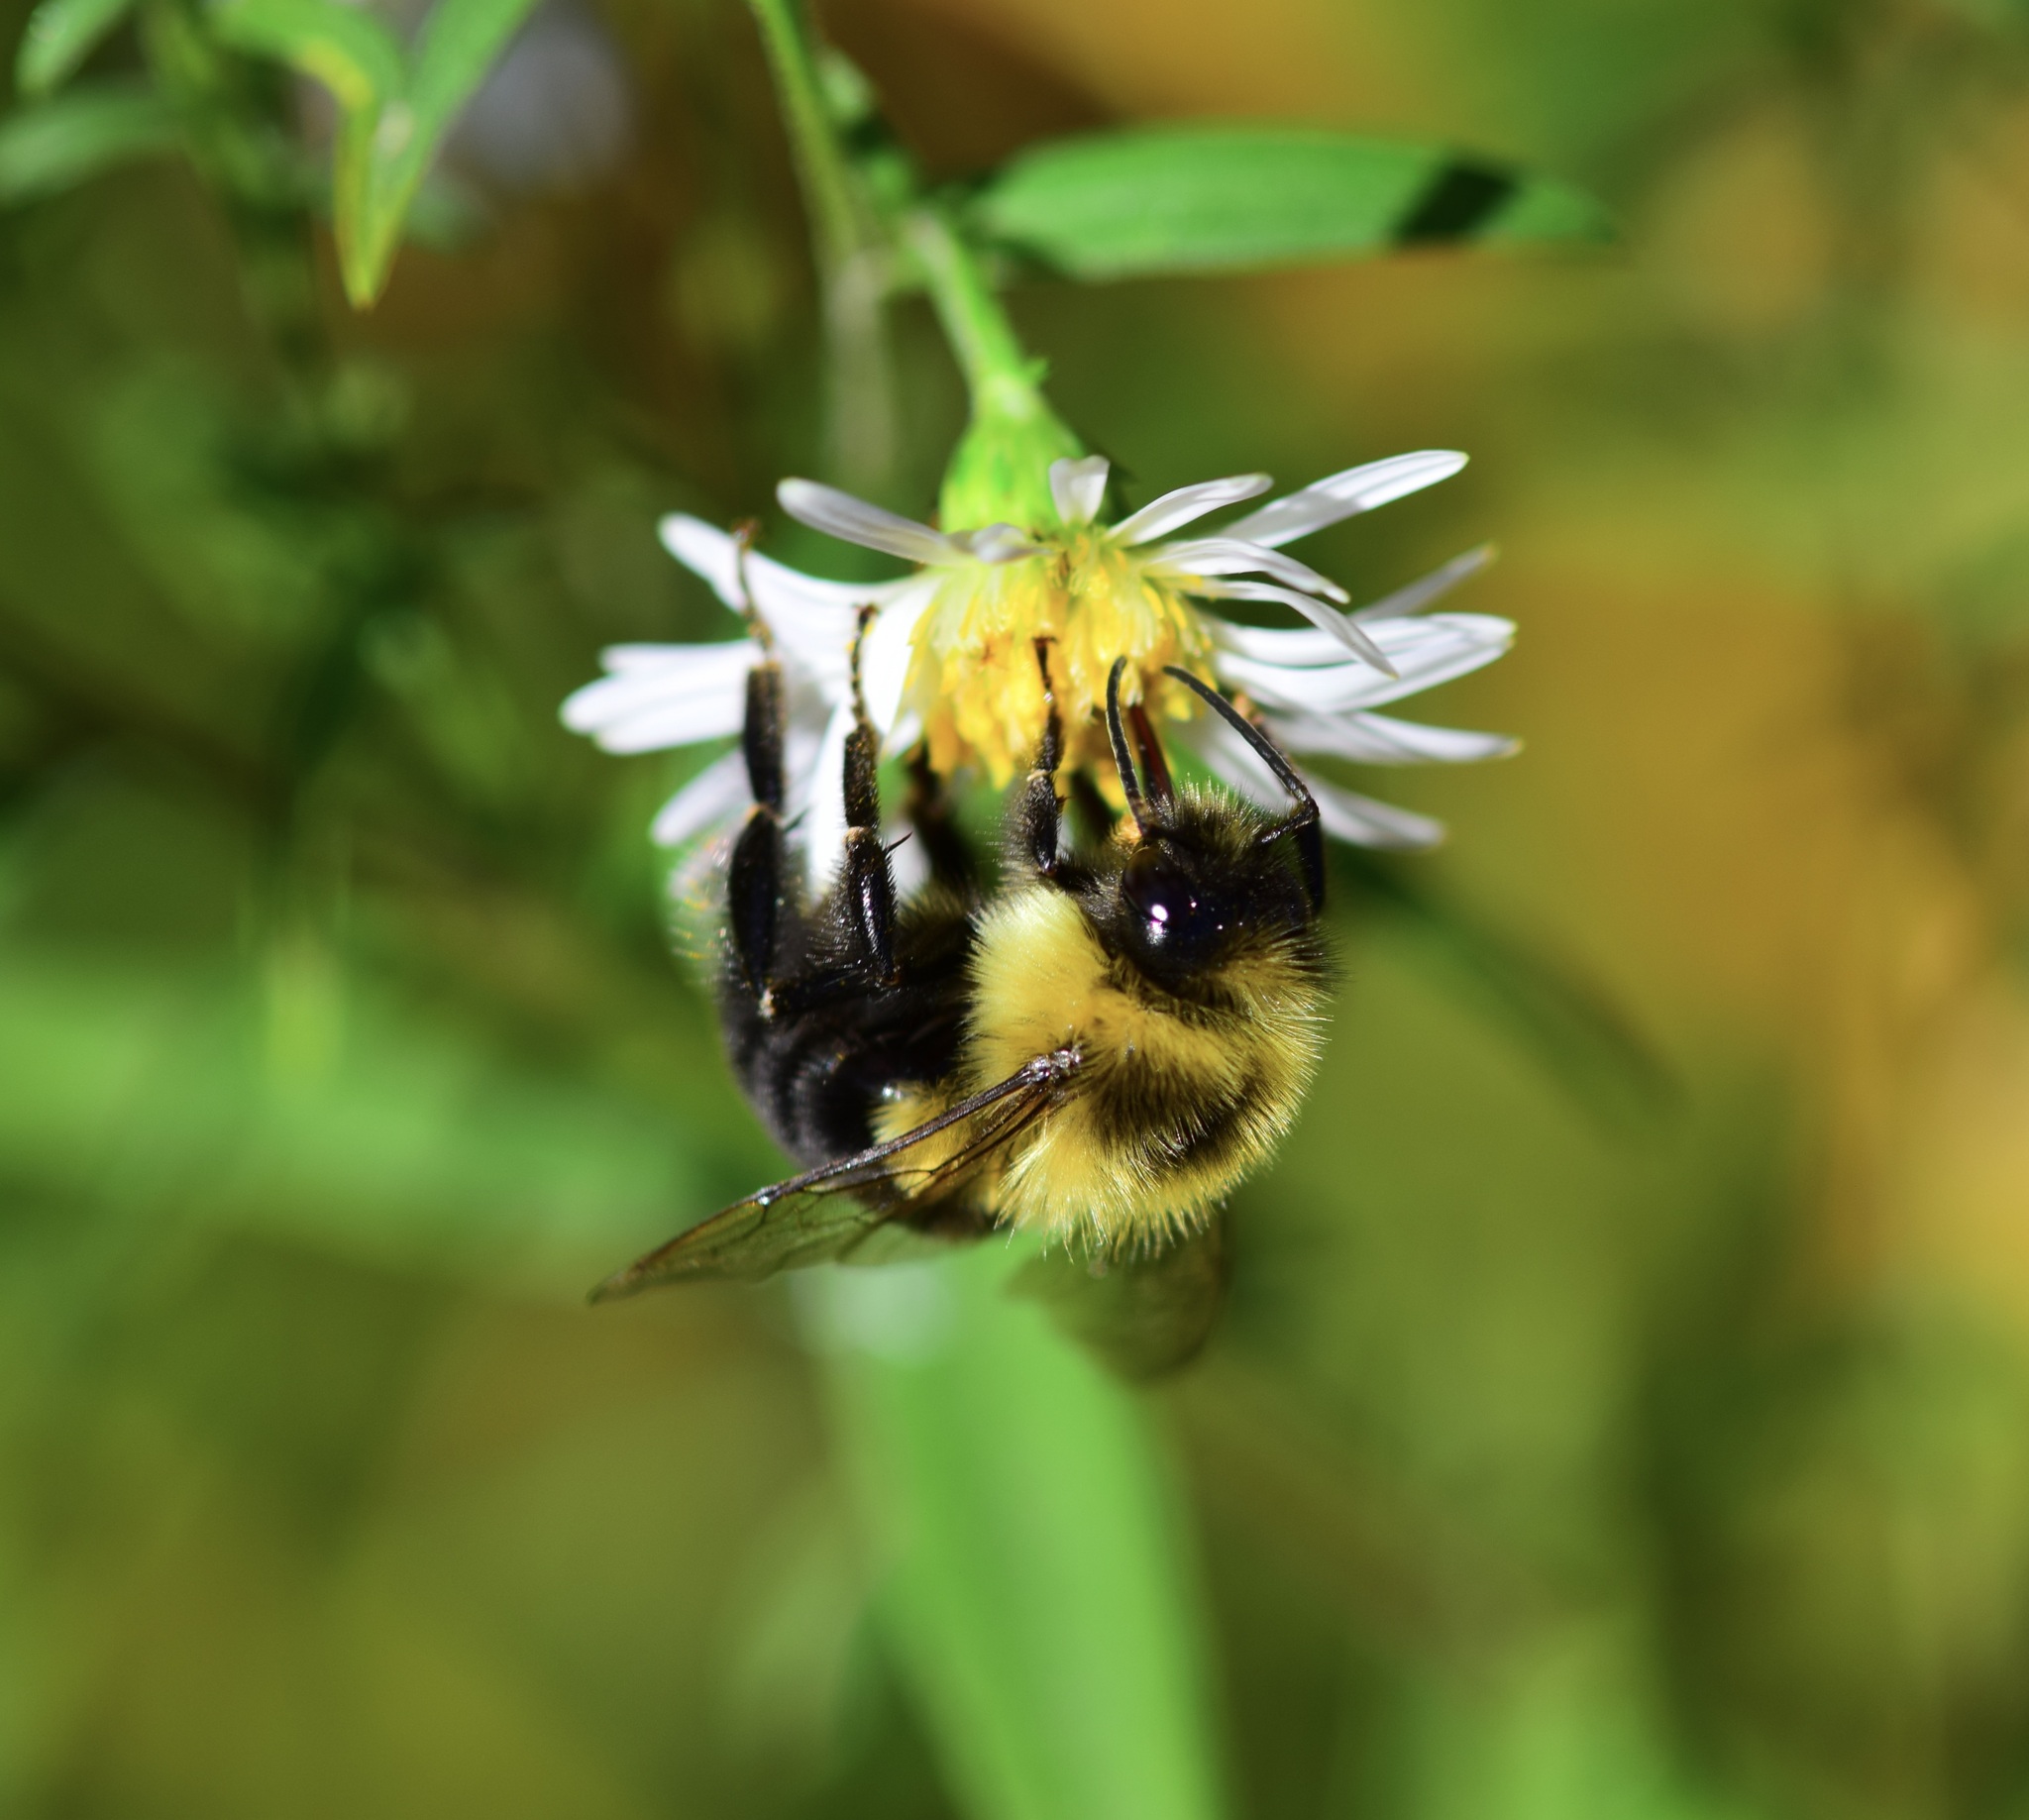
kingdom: Animalia
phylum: Arthropoda
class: Insecta
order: Hymenoptera
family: Apidae
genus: Bombus
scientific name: Bombus impatiens
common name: Common eastern bumble bee
